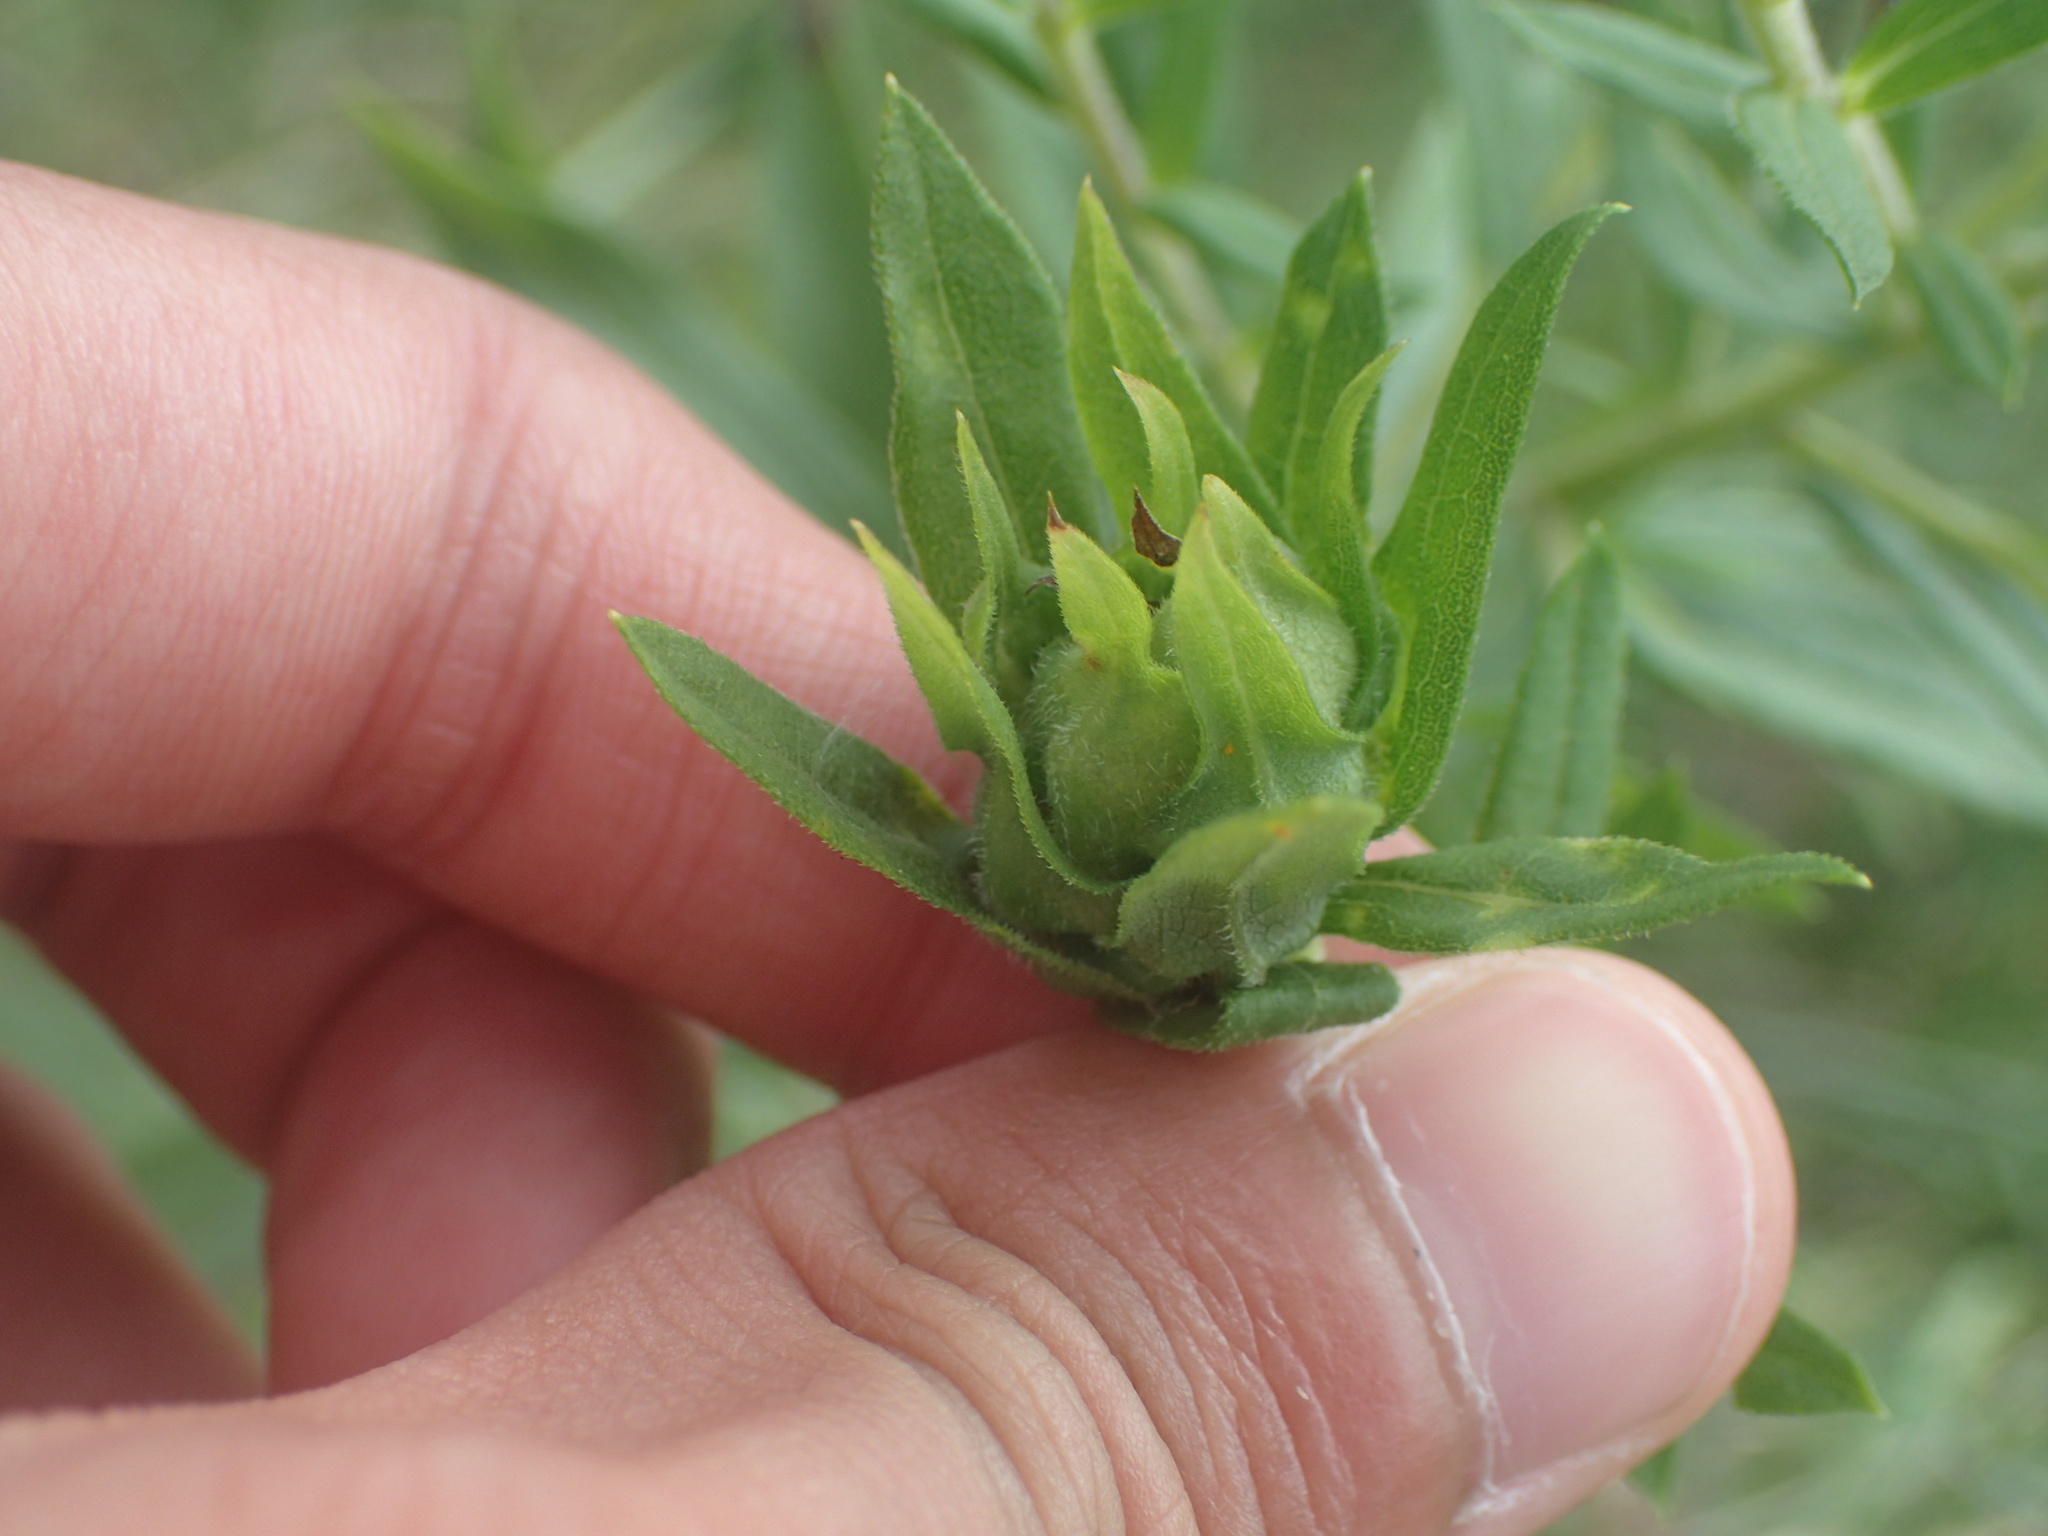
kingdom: Animalia
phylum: Arthropoda
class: Insecta
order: Diptera
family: Cecidomyiidae
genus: Asphondylia
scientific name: Asphondylia pseudorosa
